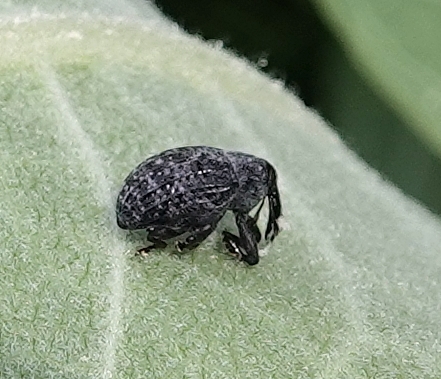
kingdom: Animalia
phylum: Arthropoda
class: Insecta
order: Coleoptera
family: Curculionidae
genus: Rhyssomatus
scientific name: Rhyssomatus lineaticollis
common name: Milkweed stem weevil
